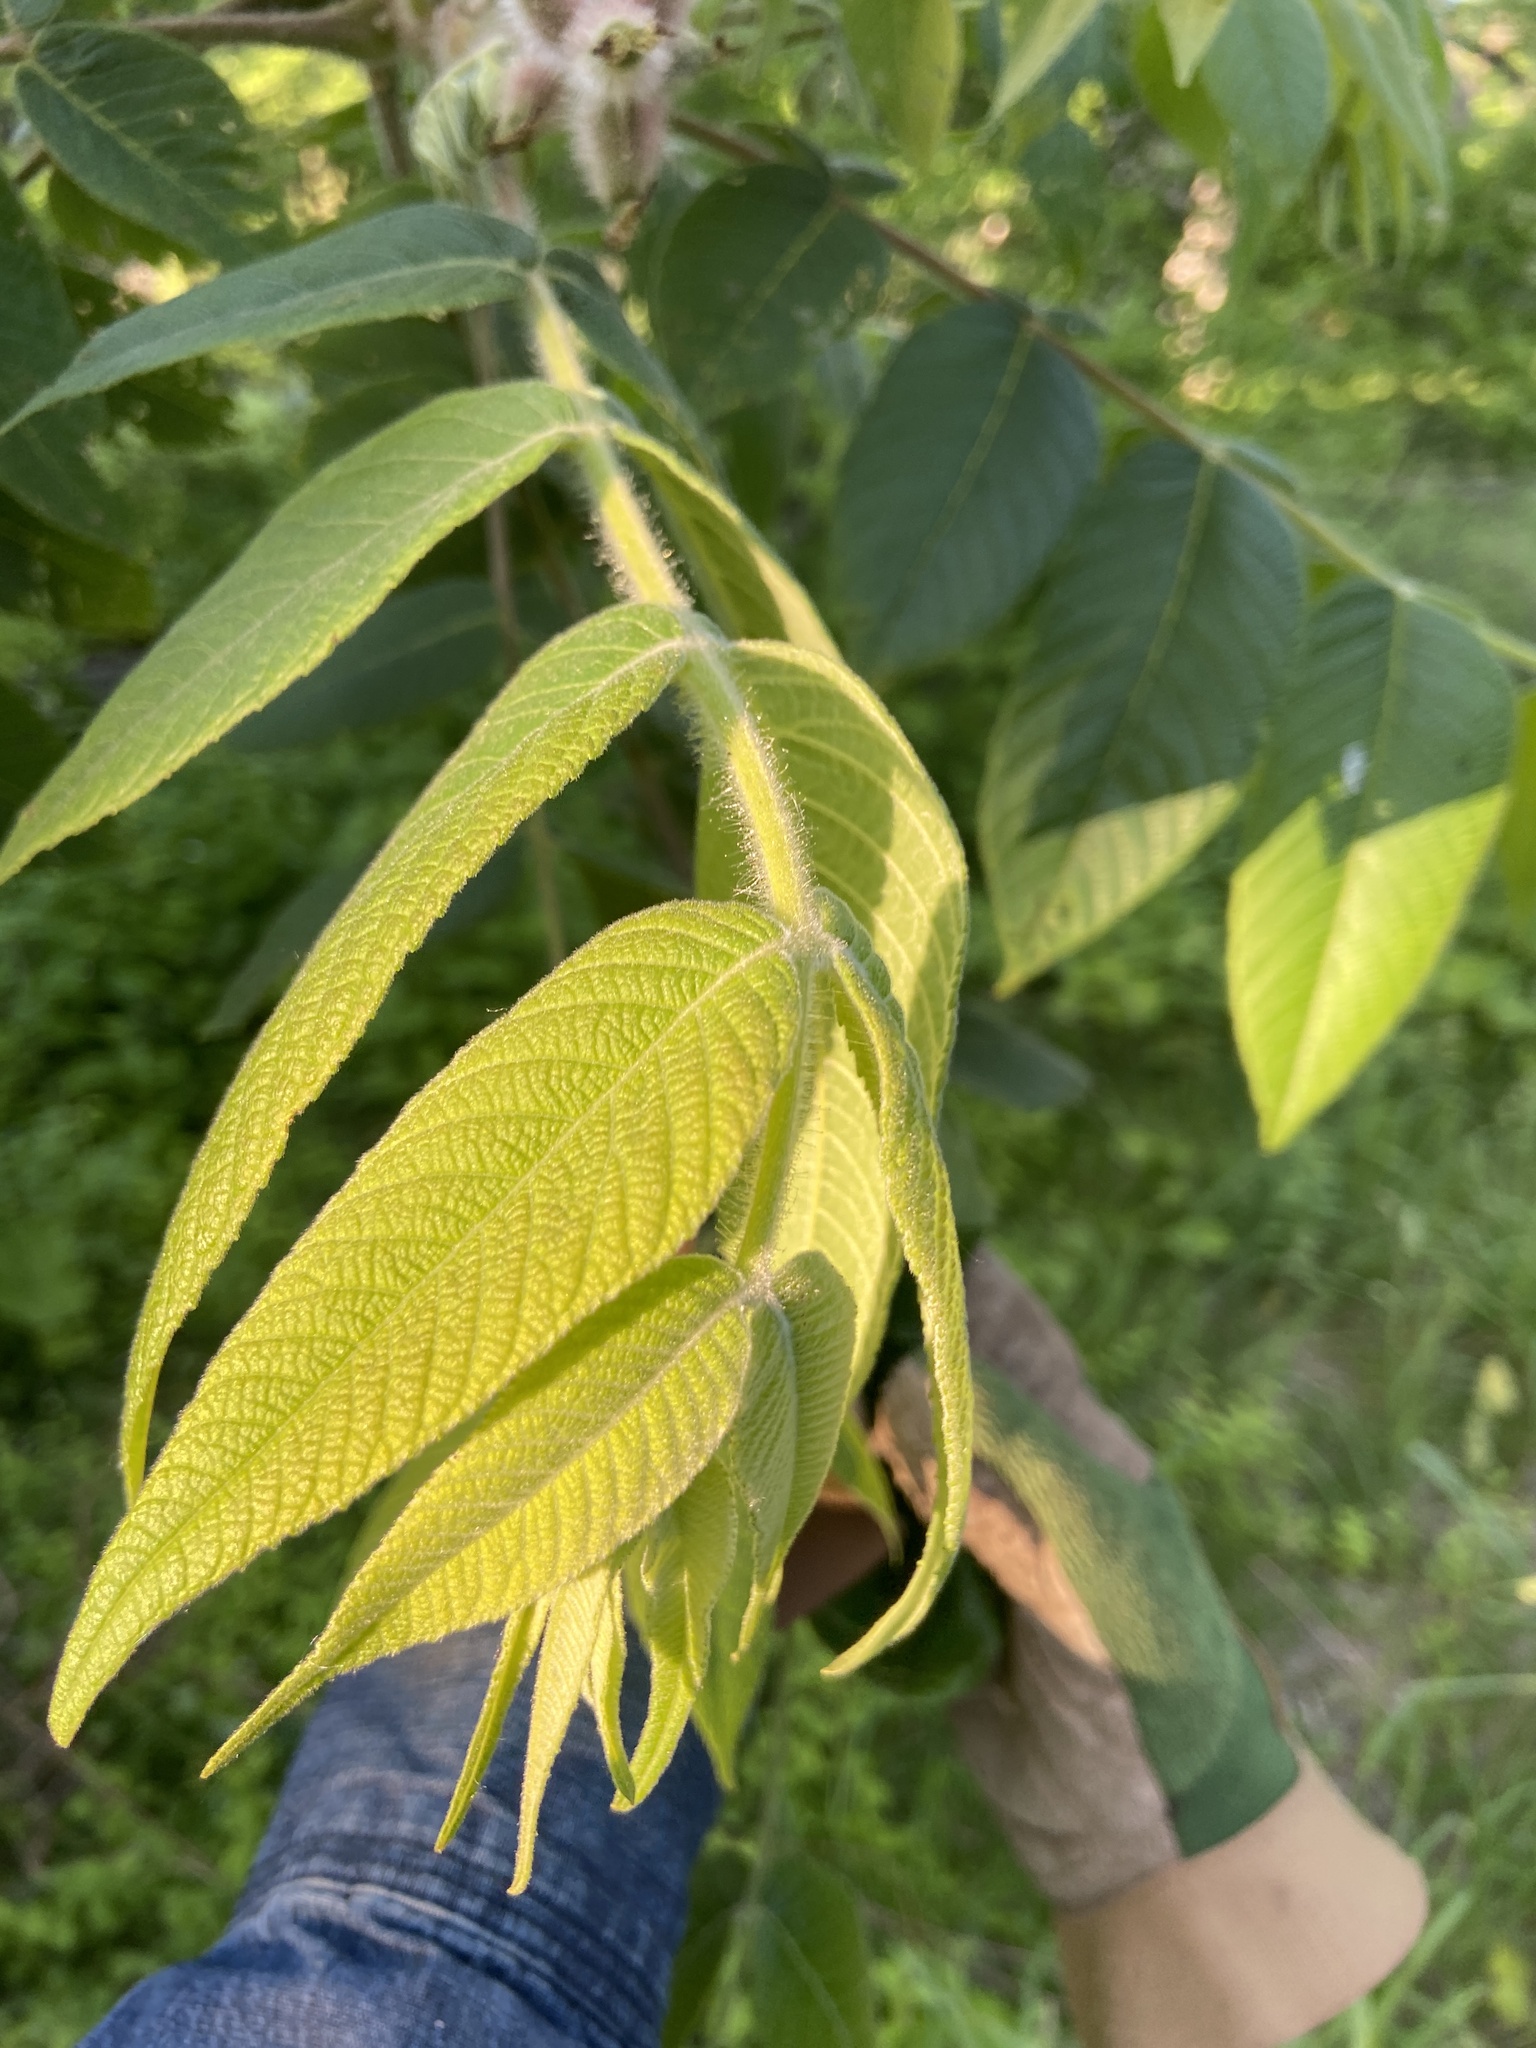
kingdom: Plantae
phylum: Tracheophyta
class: Magnoliopsida
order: Fagales
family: Juglandaceae
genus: Juglans
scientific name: Juglans cinerea
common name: Butternut
